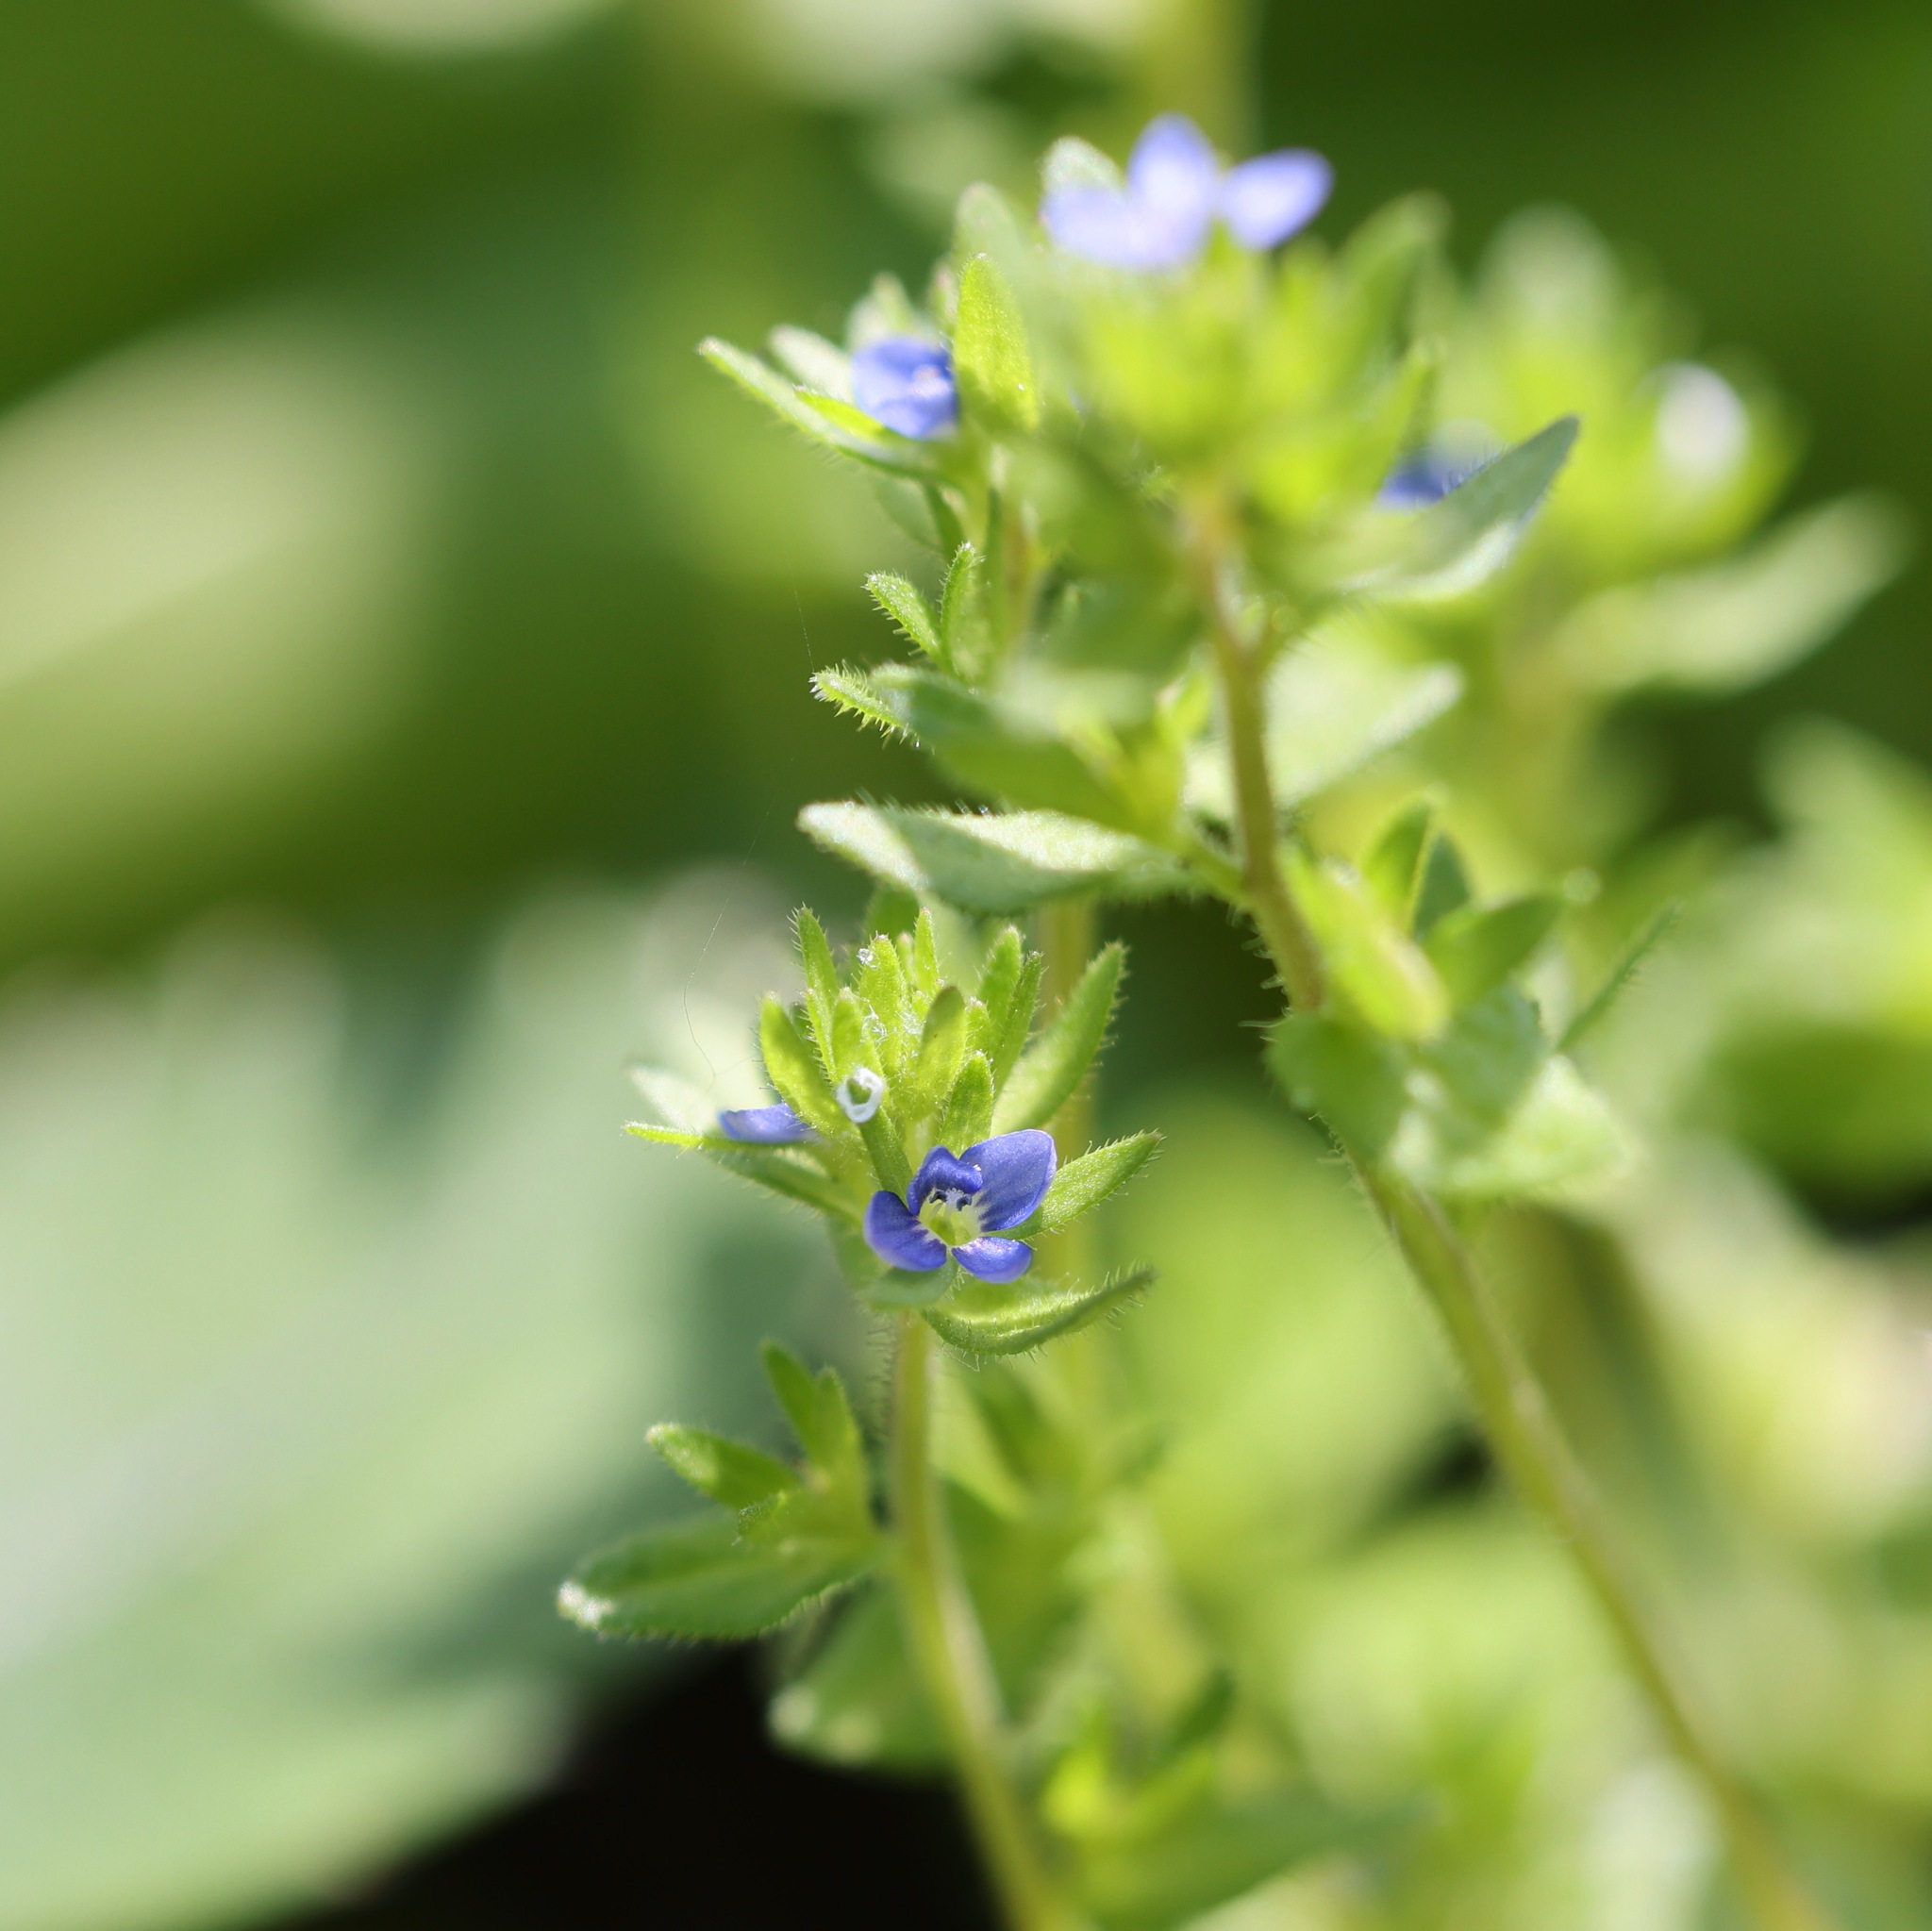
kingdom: Plantae
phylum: Tracheophyta
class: Magnoliopsida
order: Lamiales
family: Plantaginaceae
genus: Veronica
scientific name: Veronica arvensis
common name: Corn speedwell
